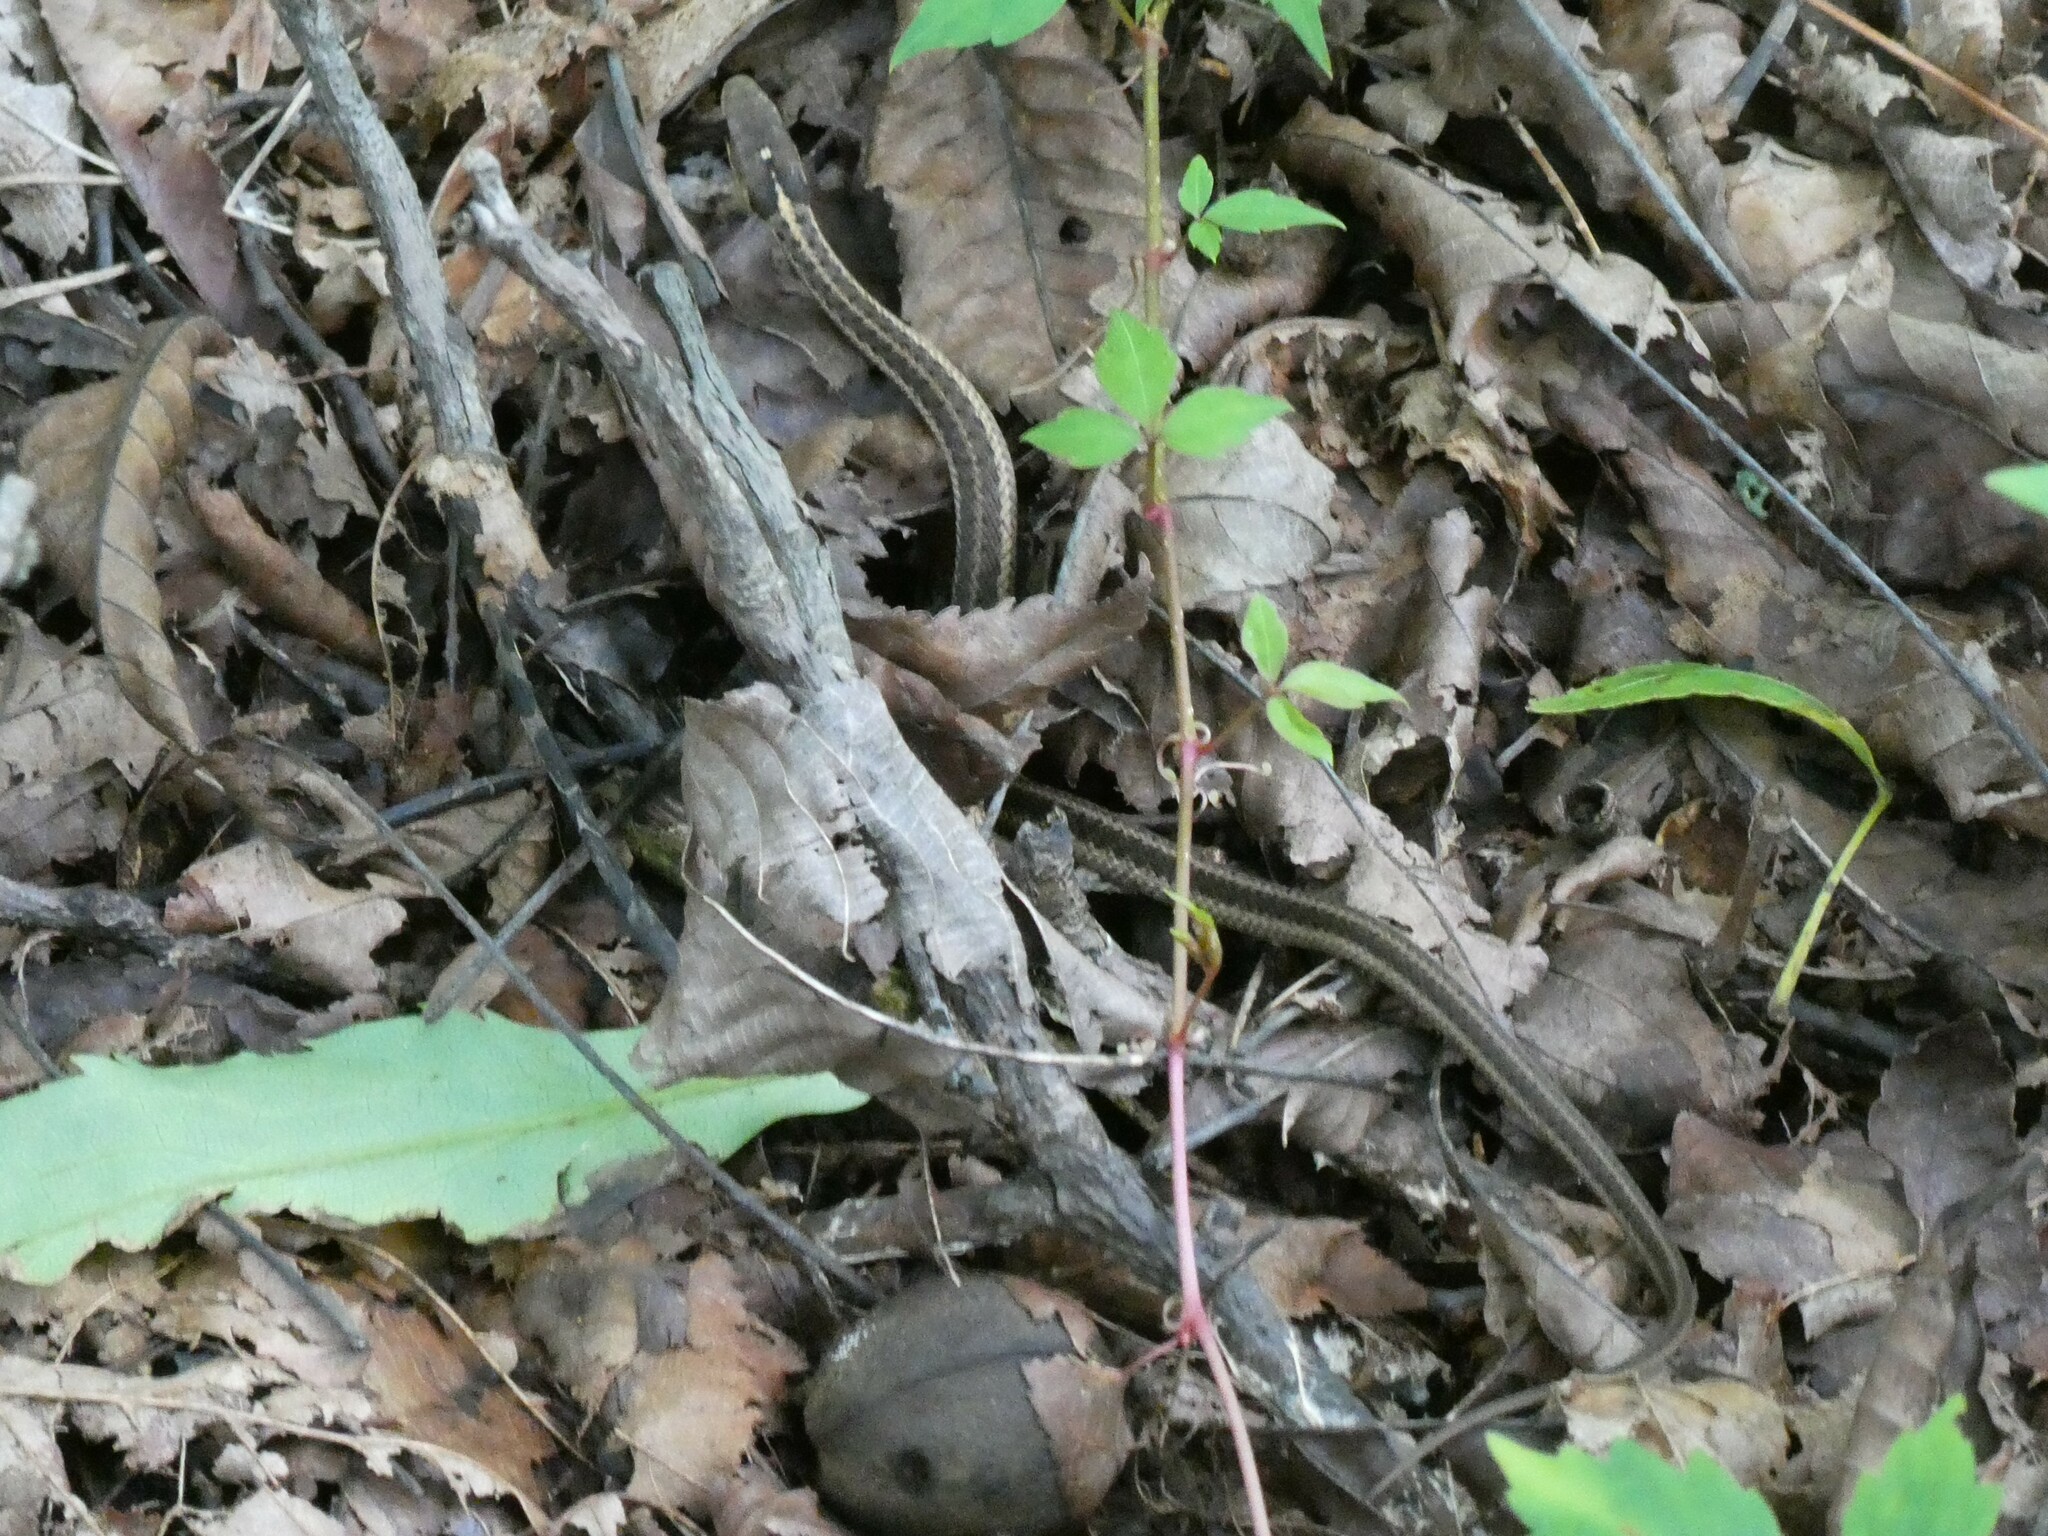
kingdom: Animalia
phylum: Chordata
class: Squamata
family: Colubridae
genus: Thamnophis
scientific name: Thamnophis sirtalis
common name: Common garter snake
